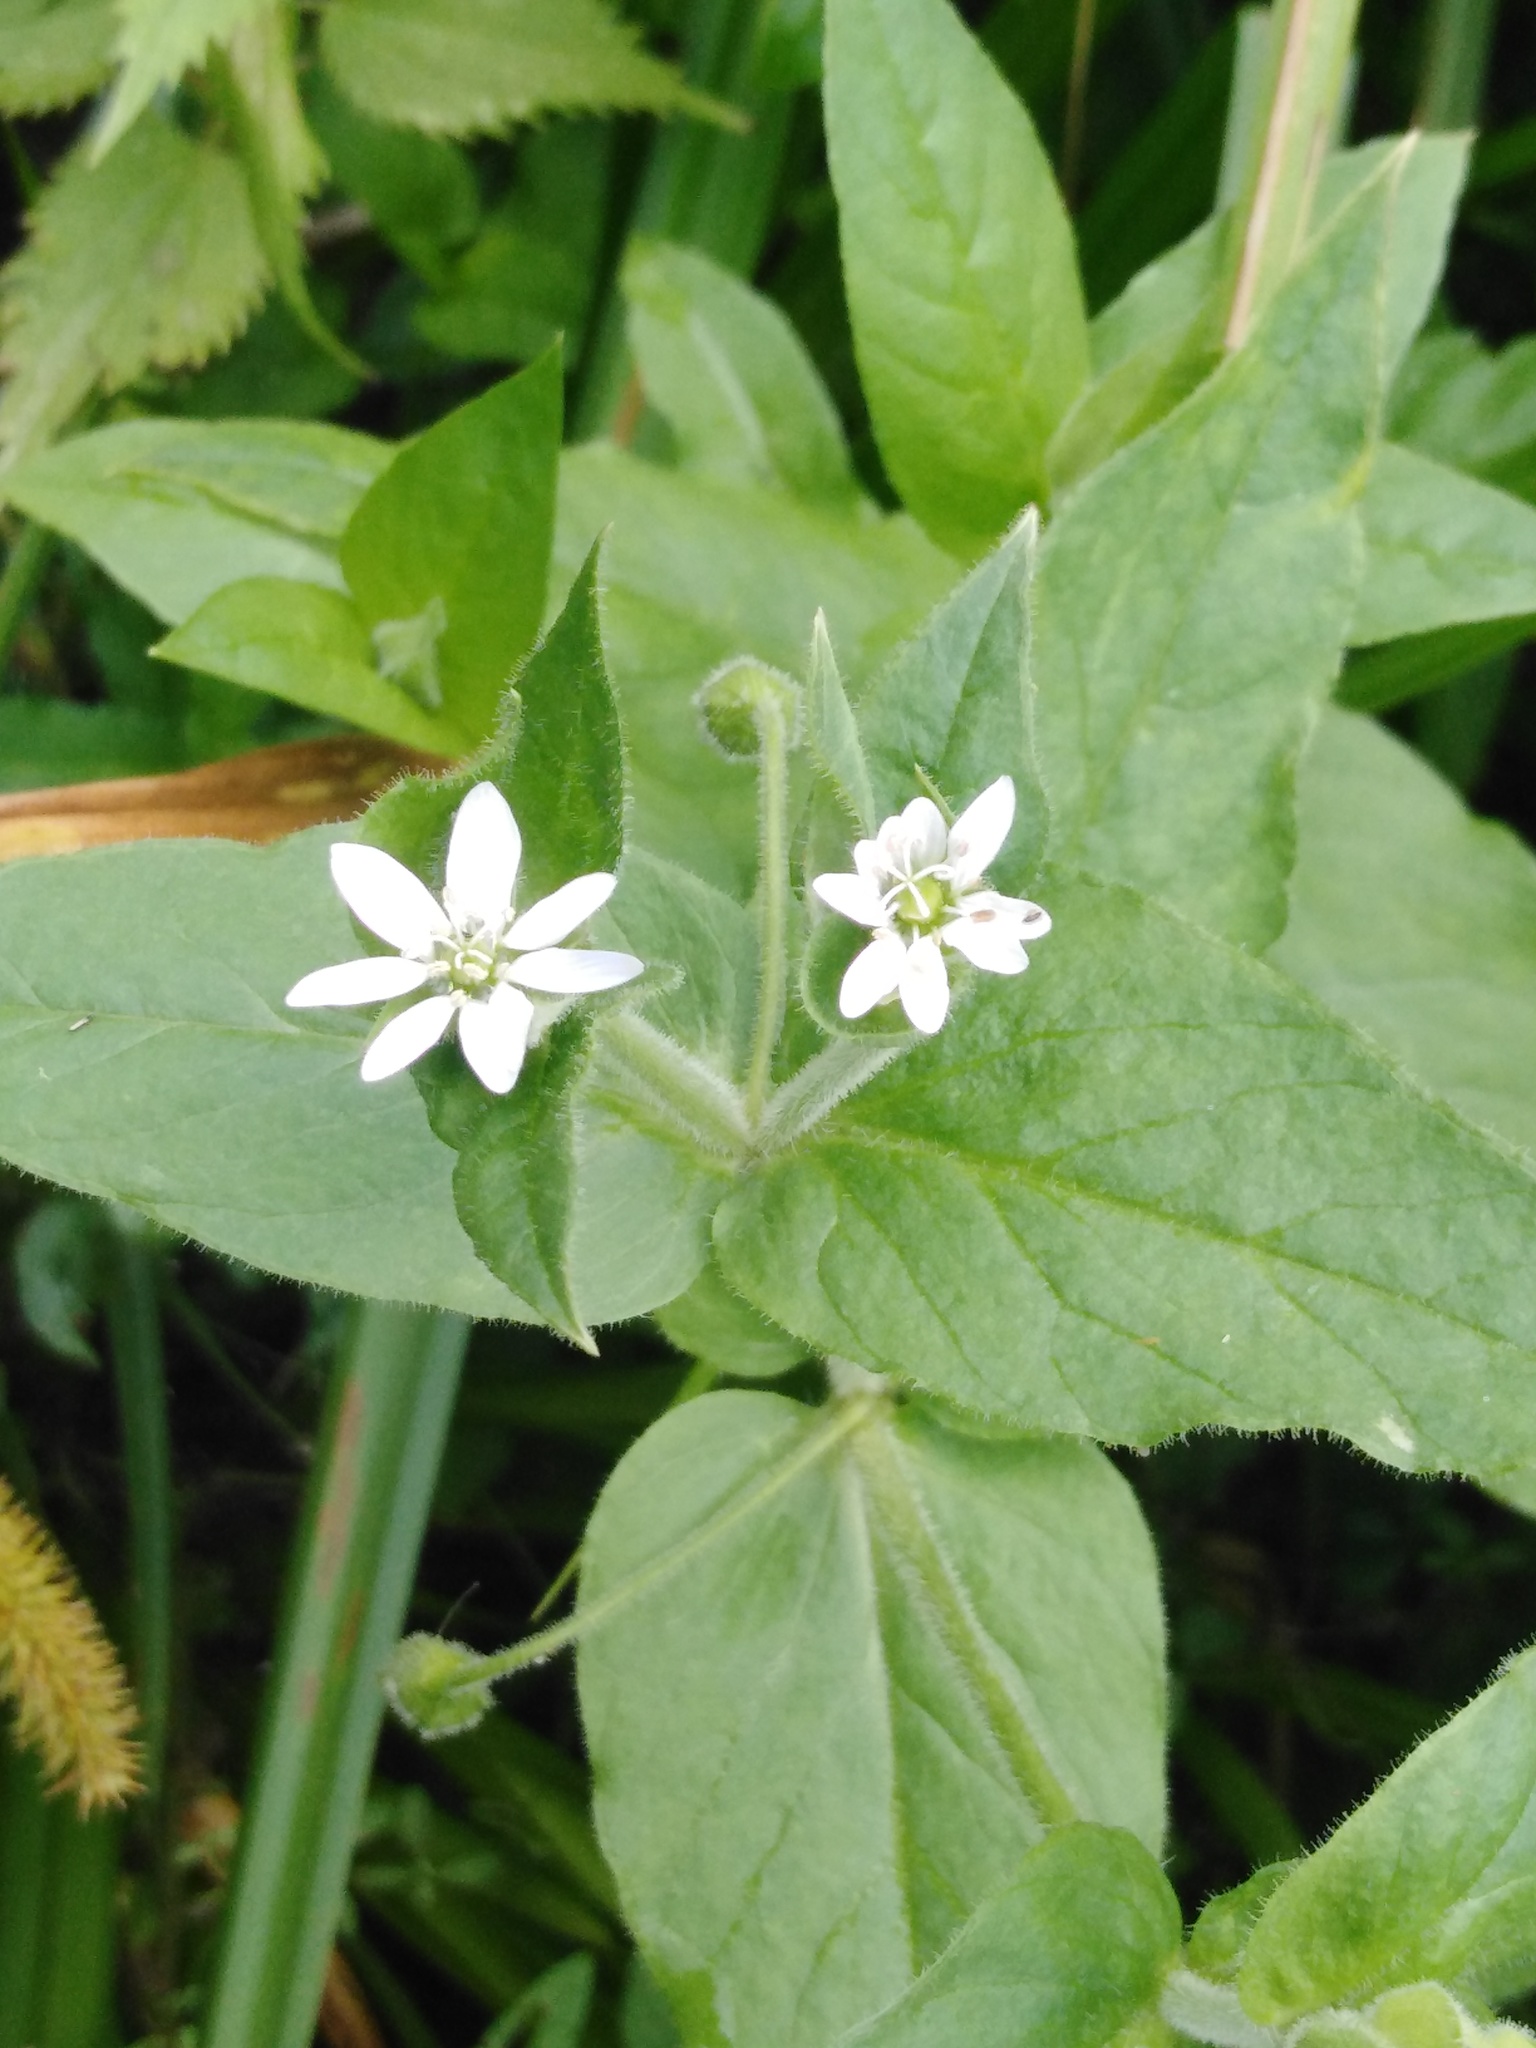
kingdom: Plantae
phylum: Tracheophyta
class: Magnoliopsida
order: Caryophyllales
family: Caryophyllaceae
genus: Stellaria
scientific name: Stellaria aquatica
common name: Water chickweed
